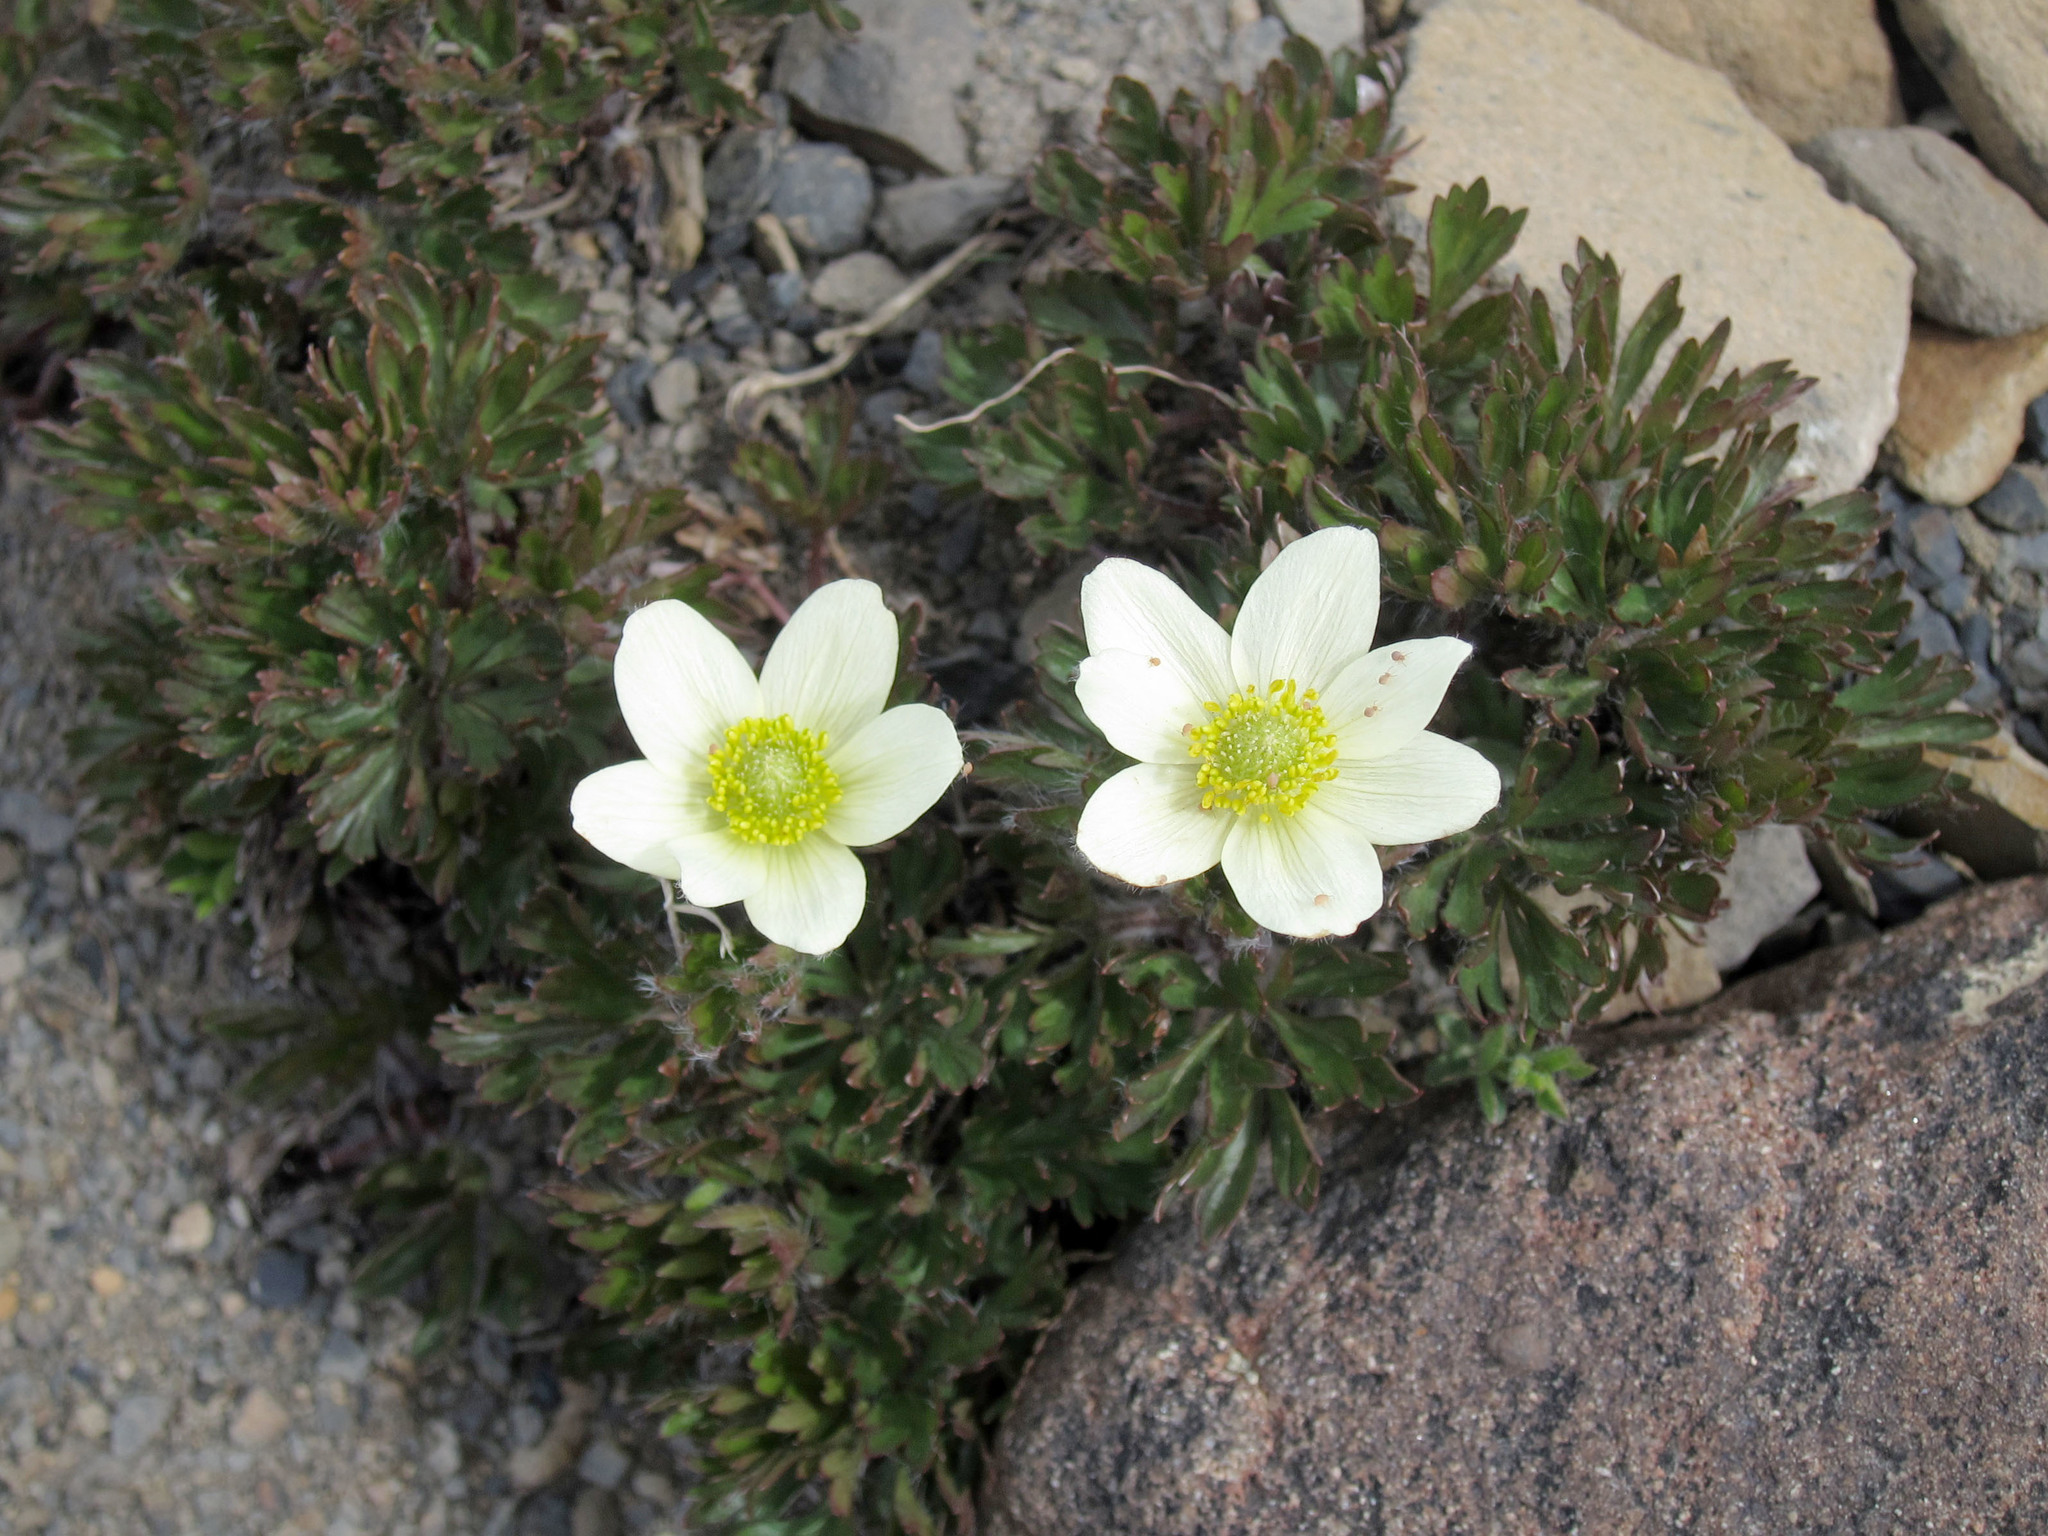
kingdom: Plantae
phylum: Tracheophyta
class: Magnoliopsida
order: Ranunculales
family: Ranunculaceae
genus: Anemone
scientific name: Anemone multifida
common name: Bird's-foot anemone
